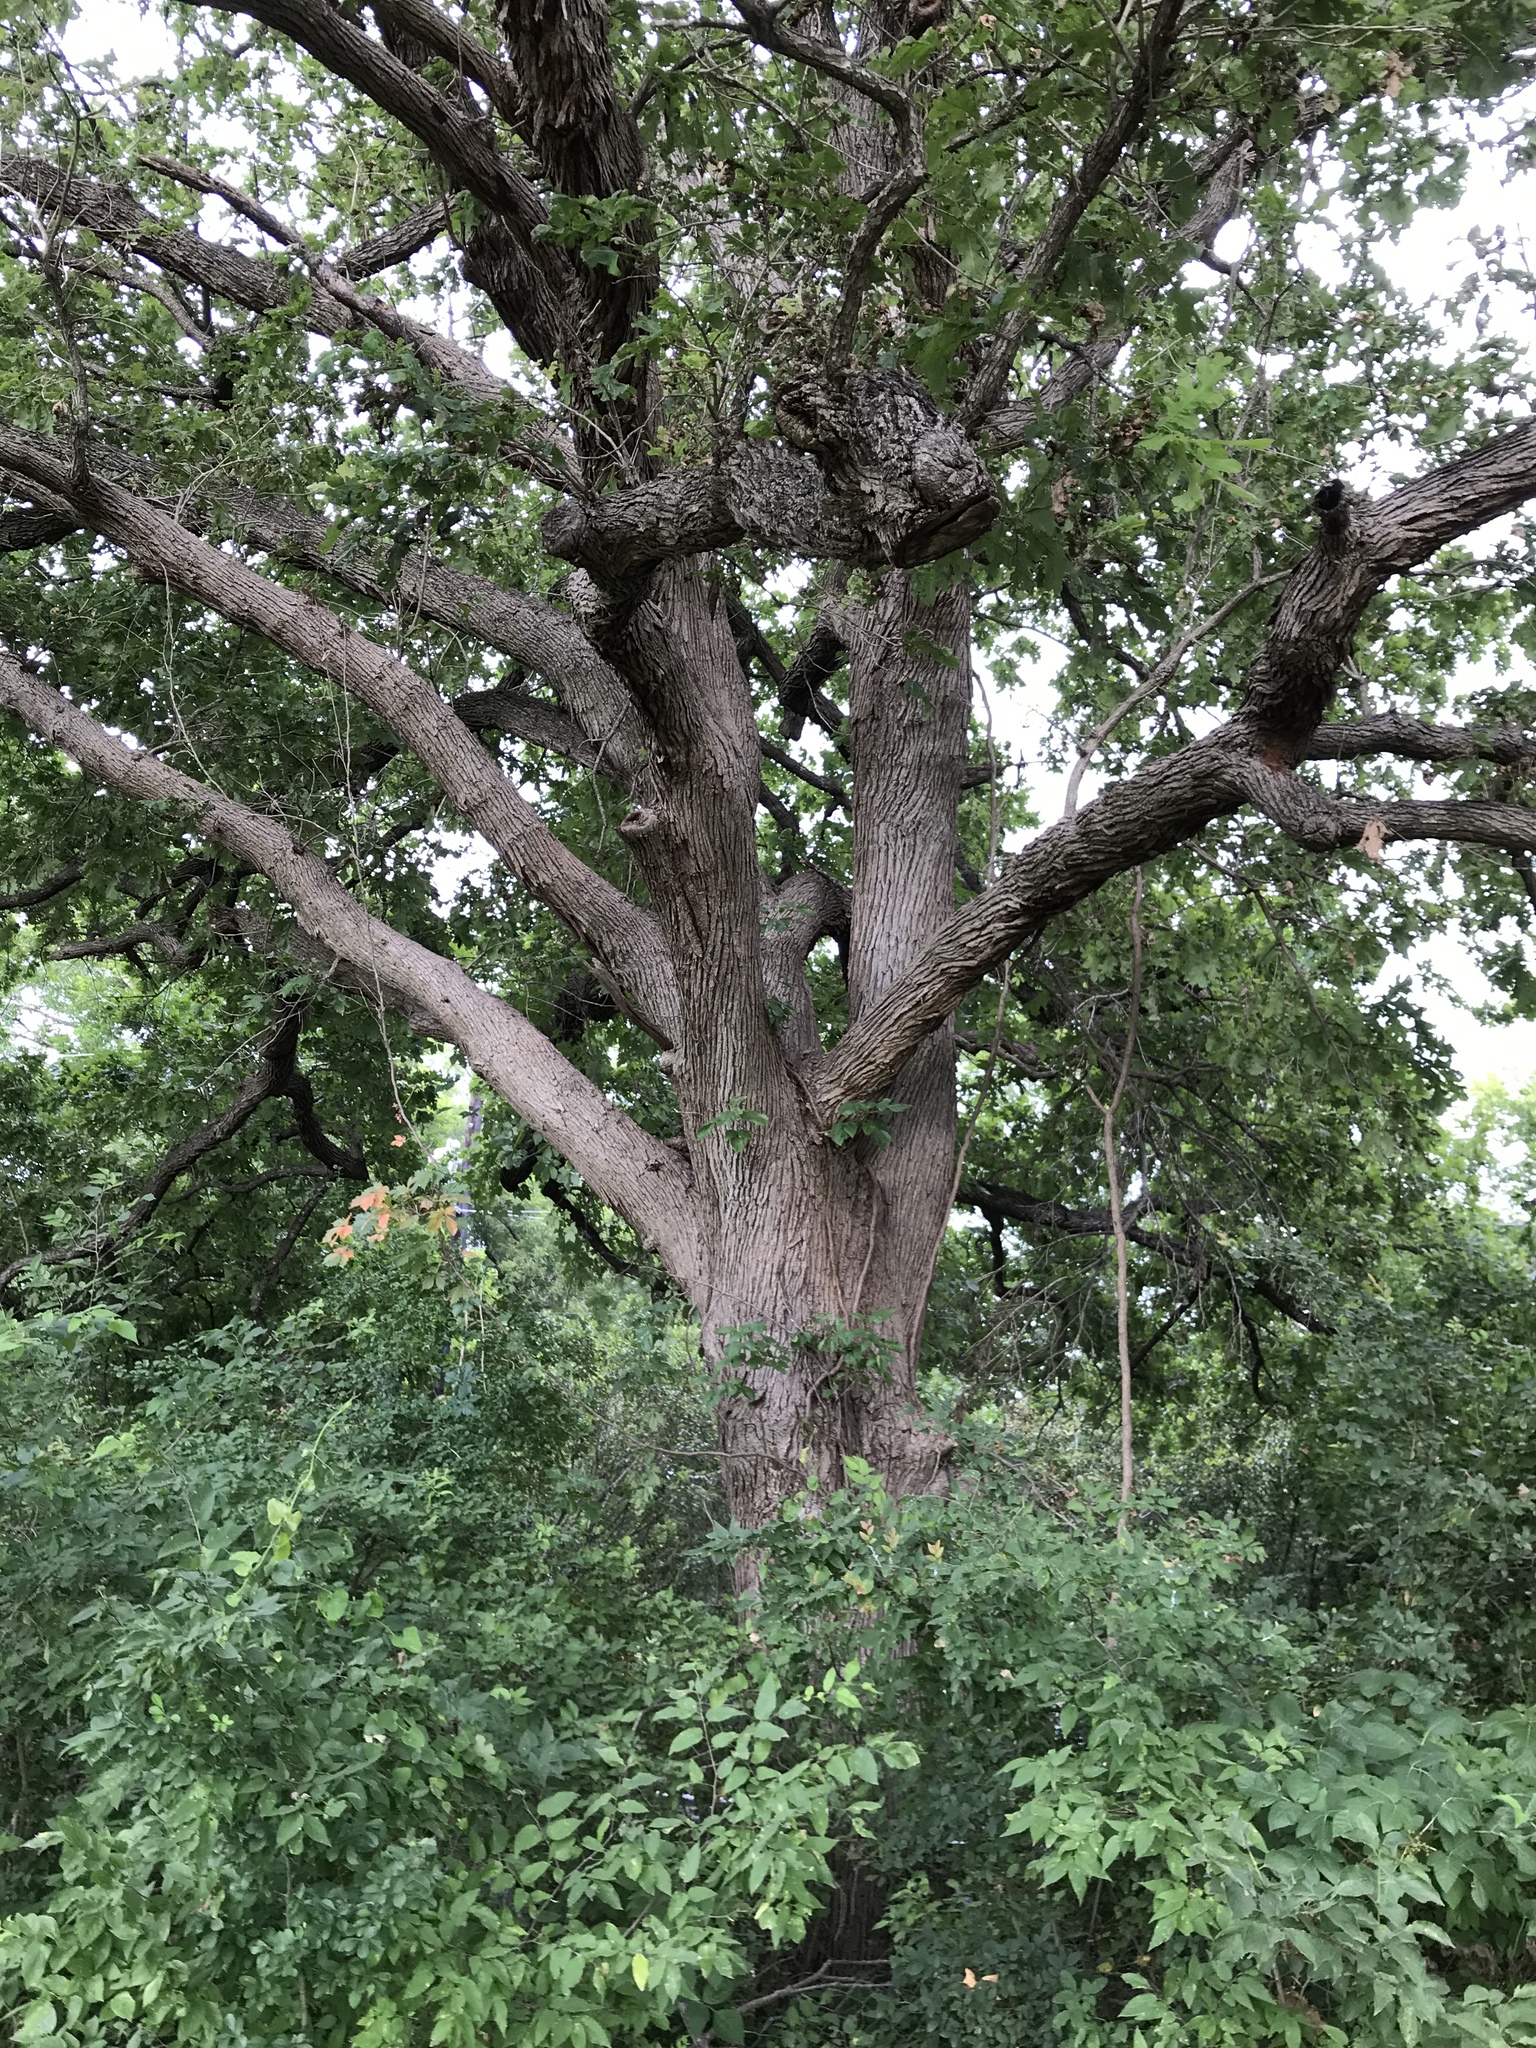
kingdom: Plantae
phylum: Tracheophyta
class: Magnoliopsida
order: Fagales
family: Fagaceae
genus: Quercus
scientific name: Quercus macrocarpa
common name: Bur oak
